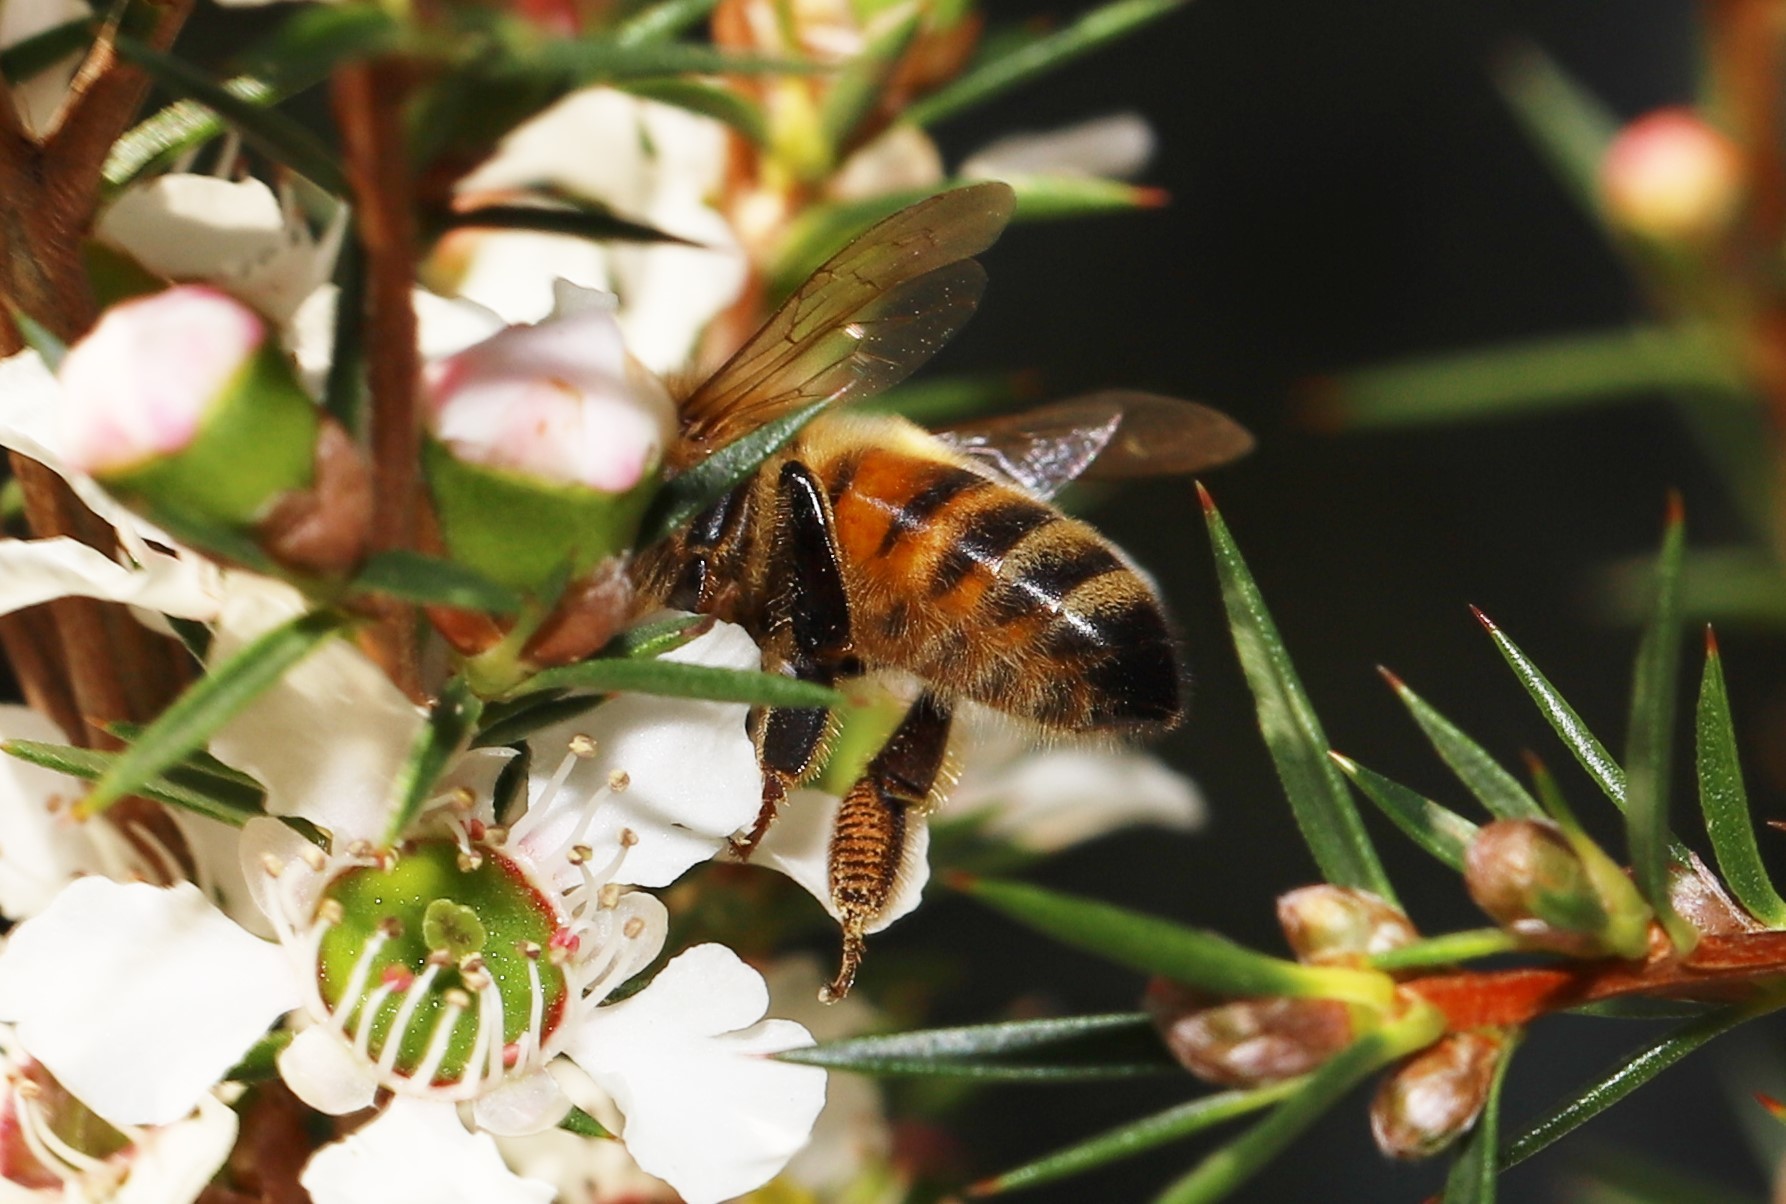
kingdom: Animalia
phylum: Arthropoda
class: Insecta
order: Hymenoptera
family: Apidae
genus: Apis
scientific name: Apis mellifera
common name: Honey bee
